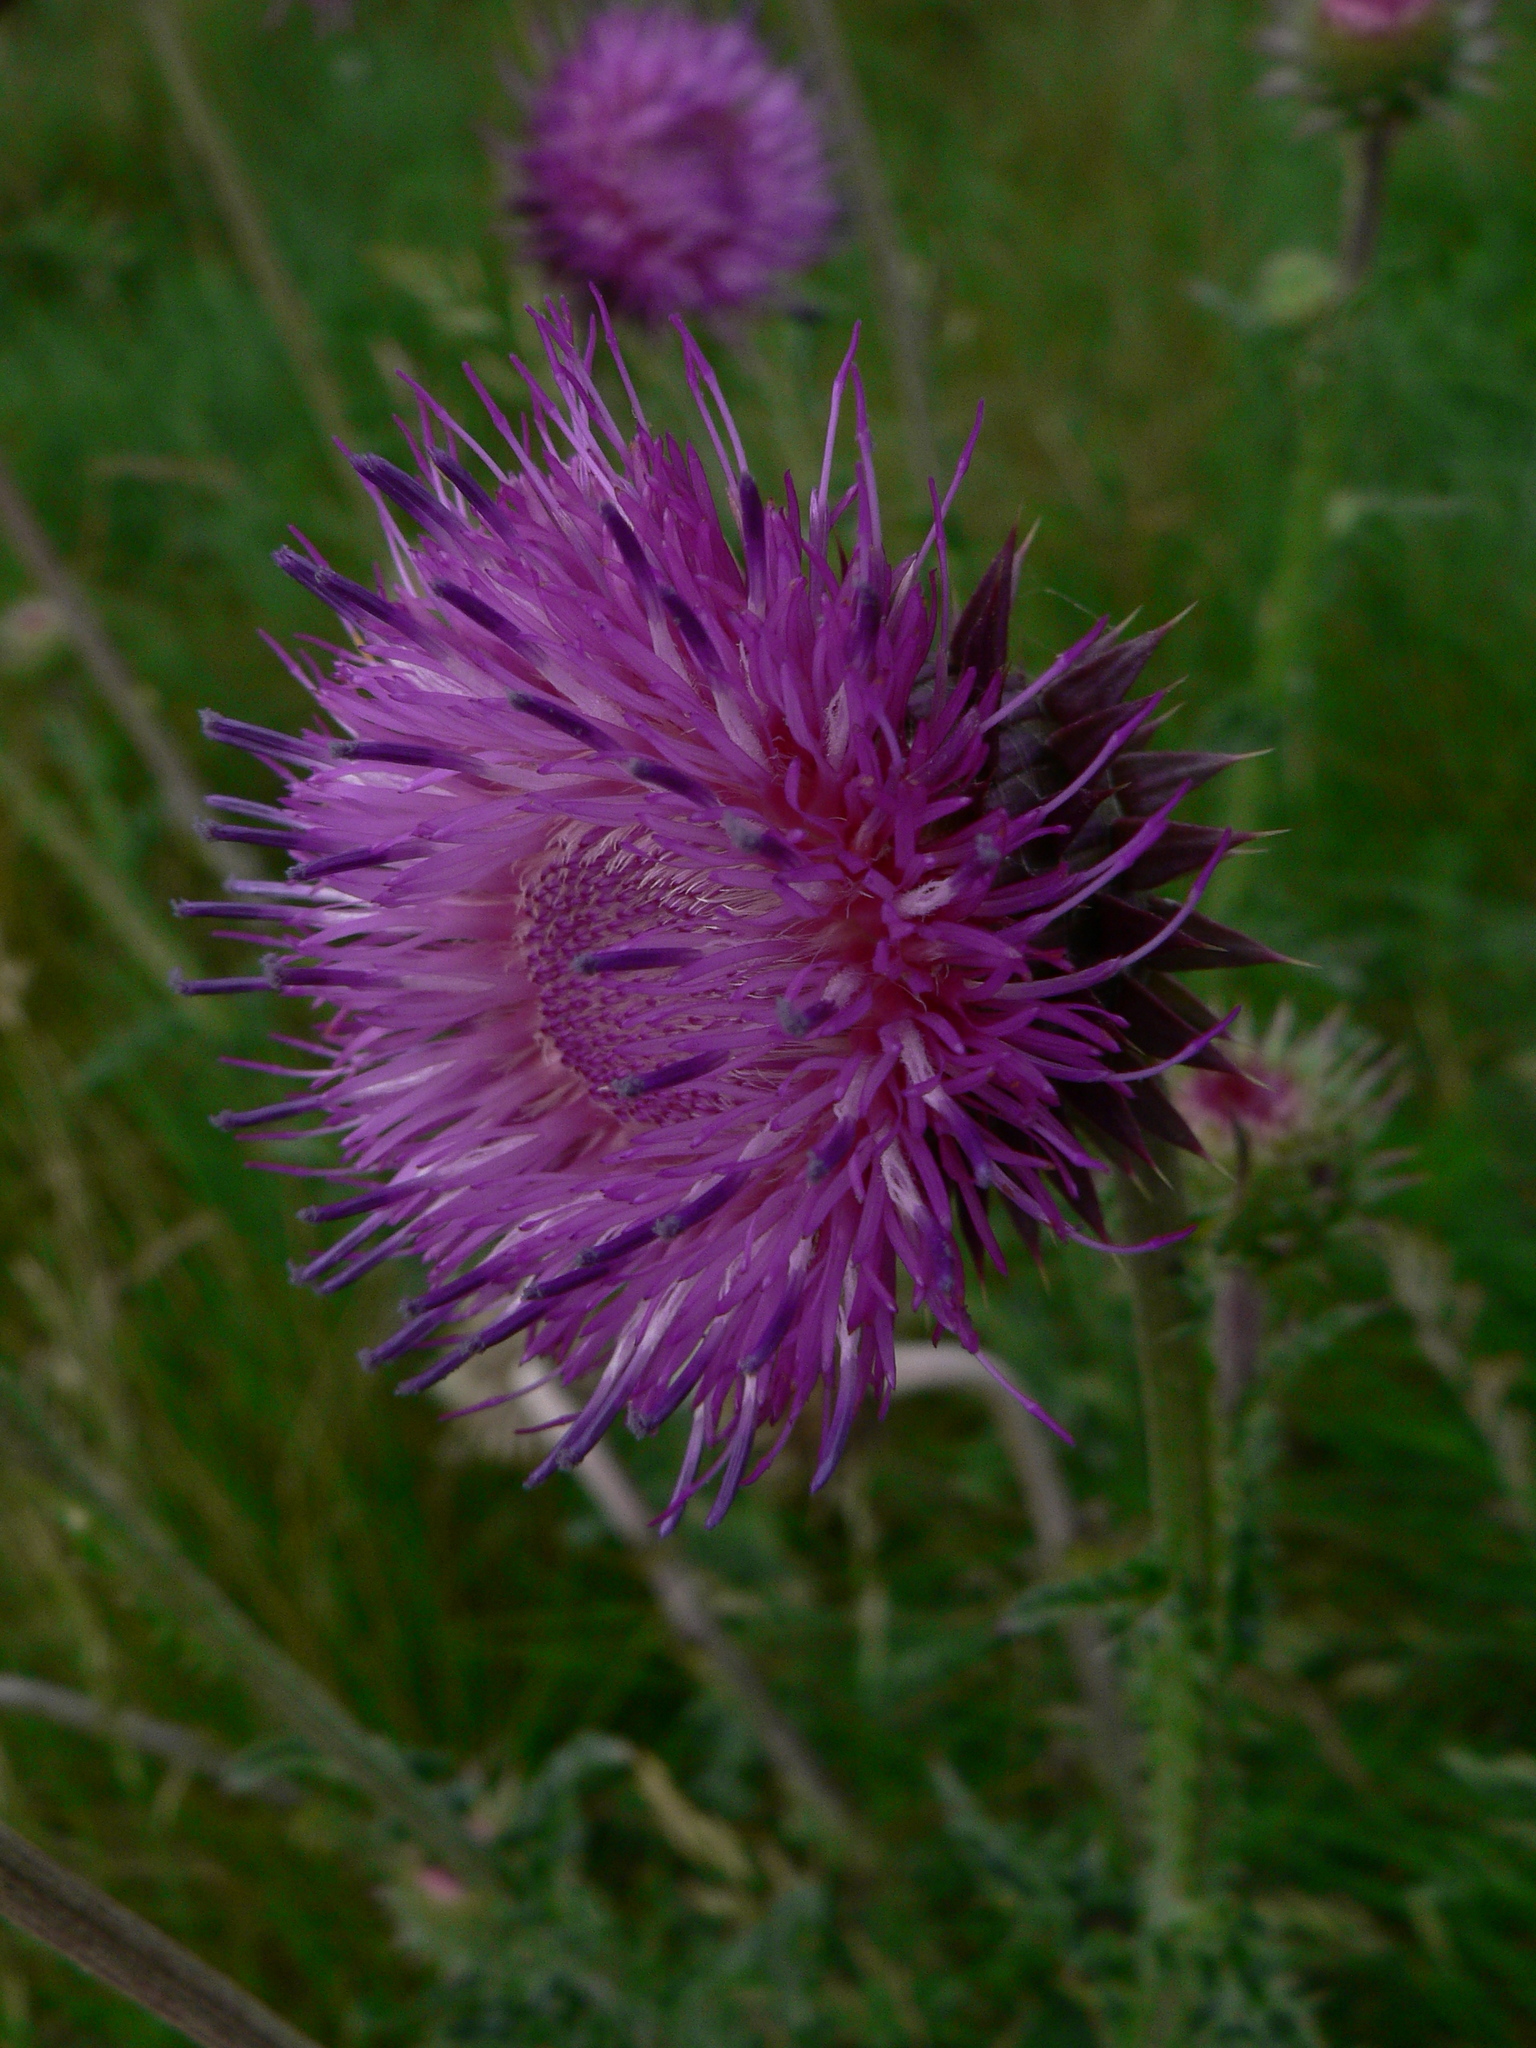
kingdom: Plantae
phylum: Tracheophyta
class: Magnoliopsida
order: Asterales
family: Asteraceae
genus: Carduus
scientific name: Carduus nutans
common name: Musk thistle
